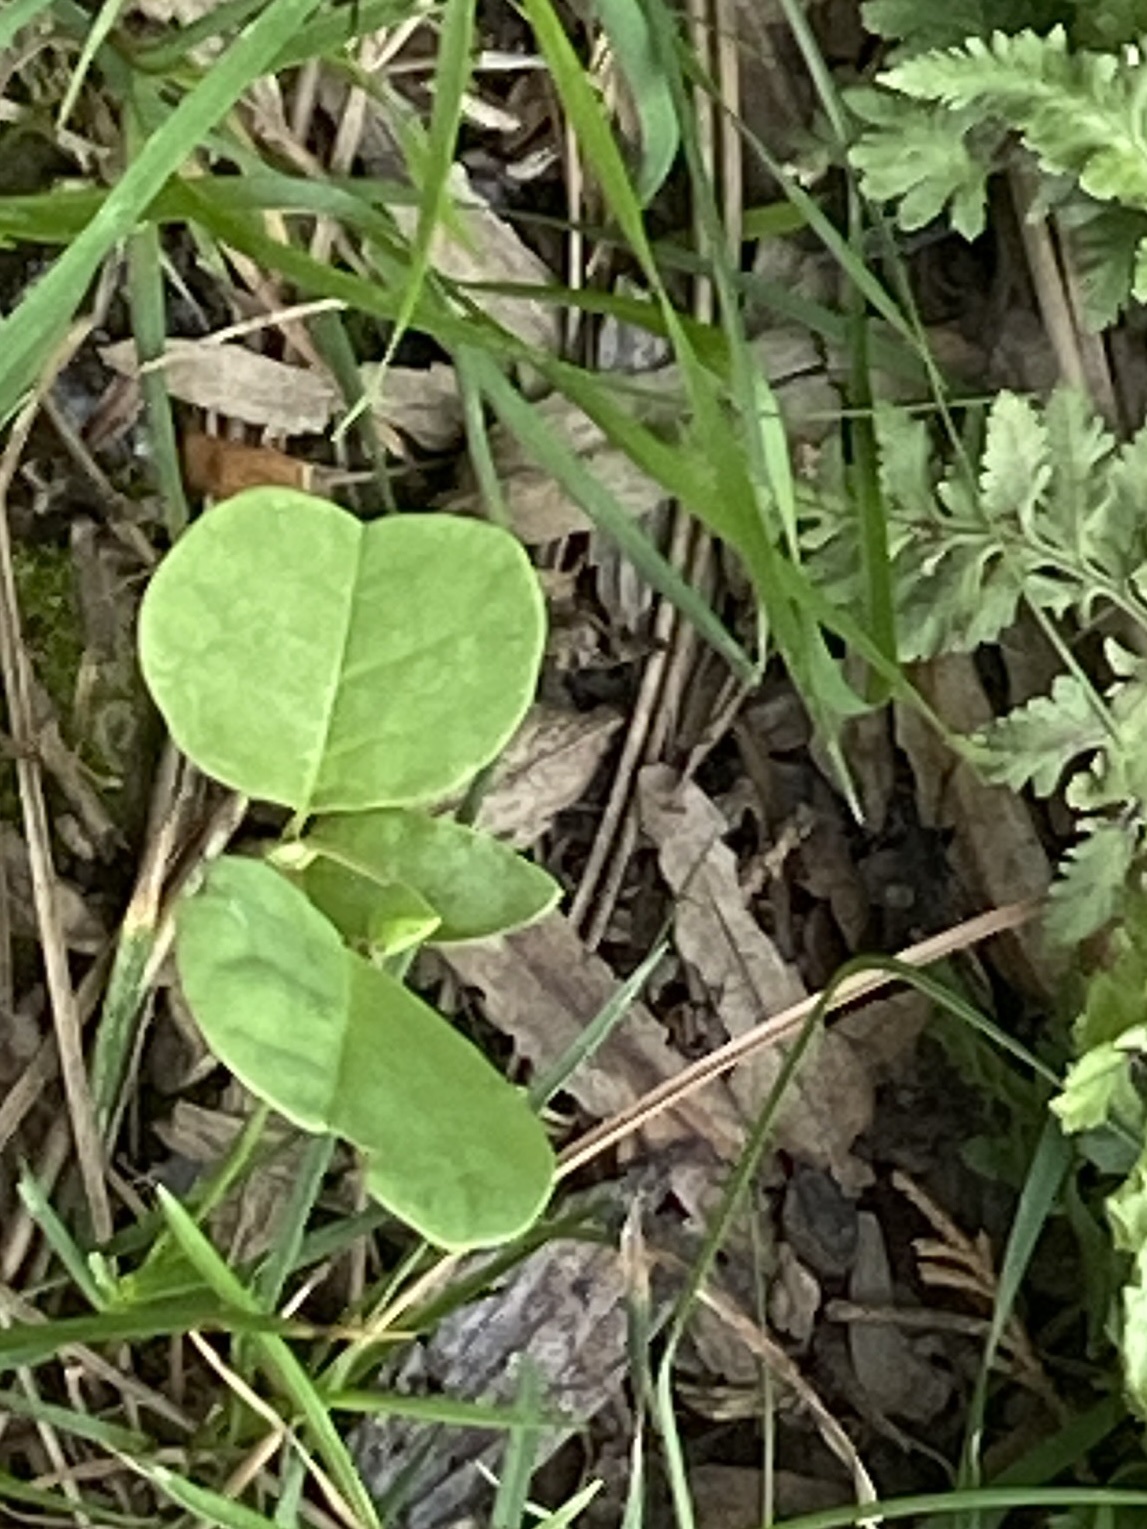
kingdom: Plantae
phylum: Tracheophyta
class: Magnoliopsida
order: Magnoliales
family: Magnoliaceae
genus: Liriodendron
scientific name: Liriodendron tulipifera
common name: Tulip tree
